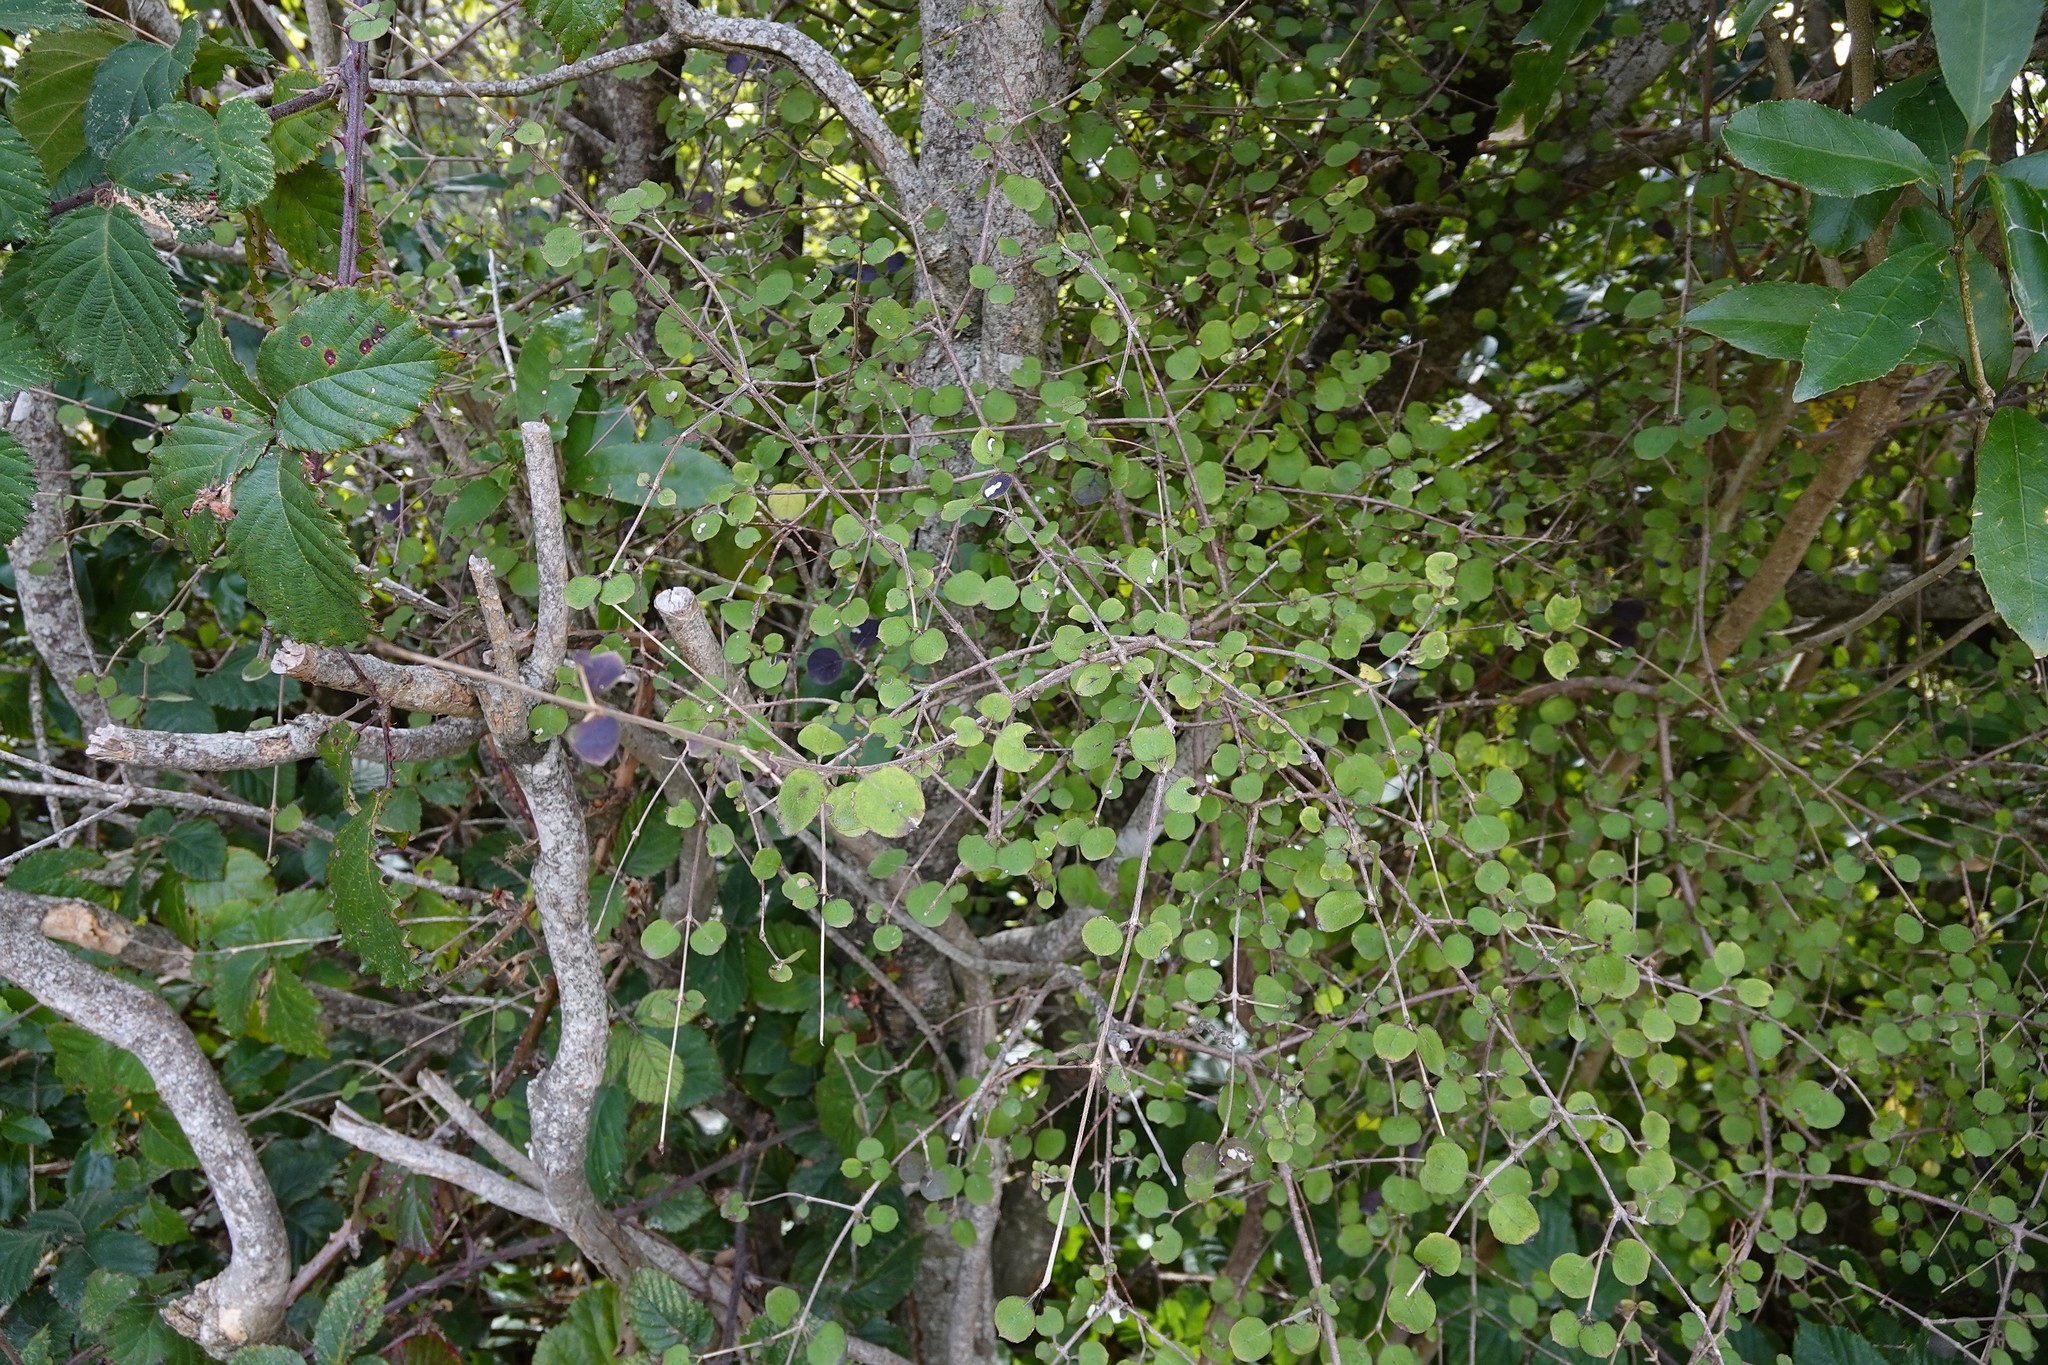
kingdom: Plantae
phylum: Tracheophyta
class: Magnoliopsida
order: Gentianales
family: Rubiaceae
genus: Coprosma
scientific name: Coprosma rotundifolia
